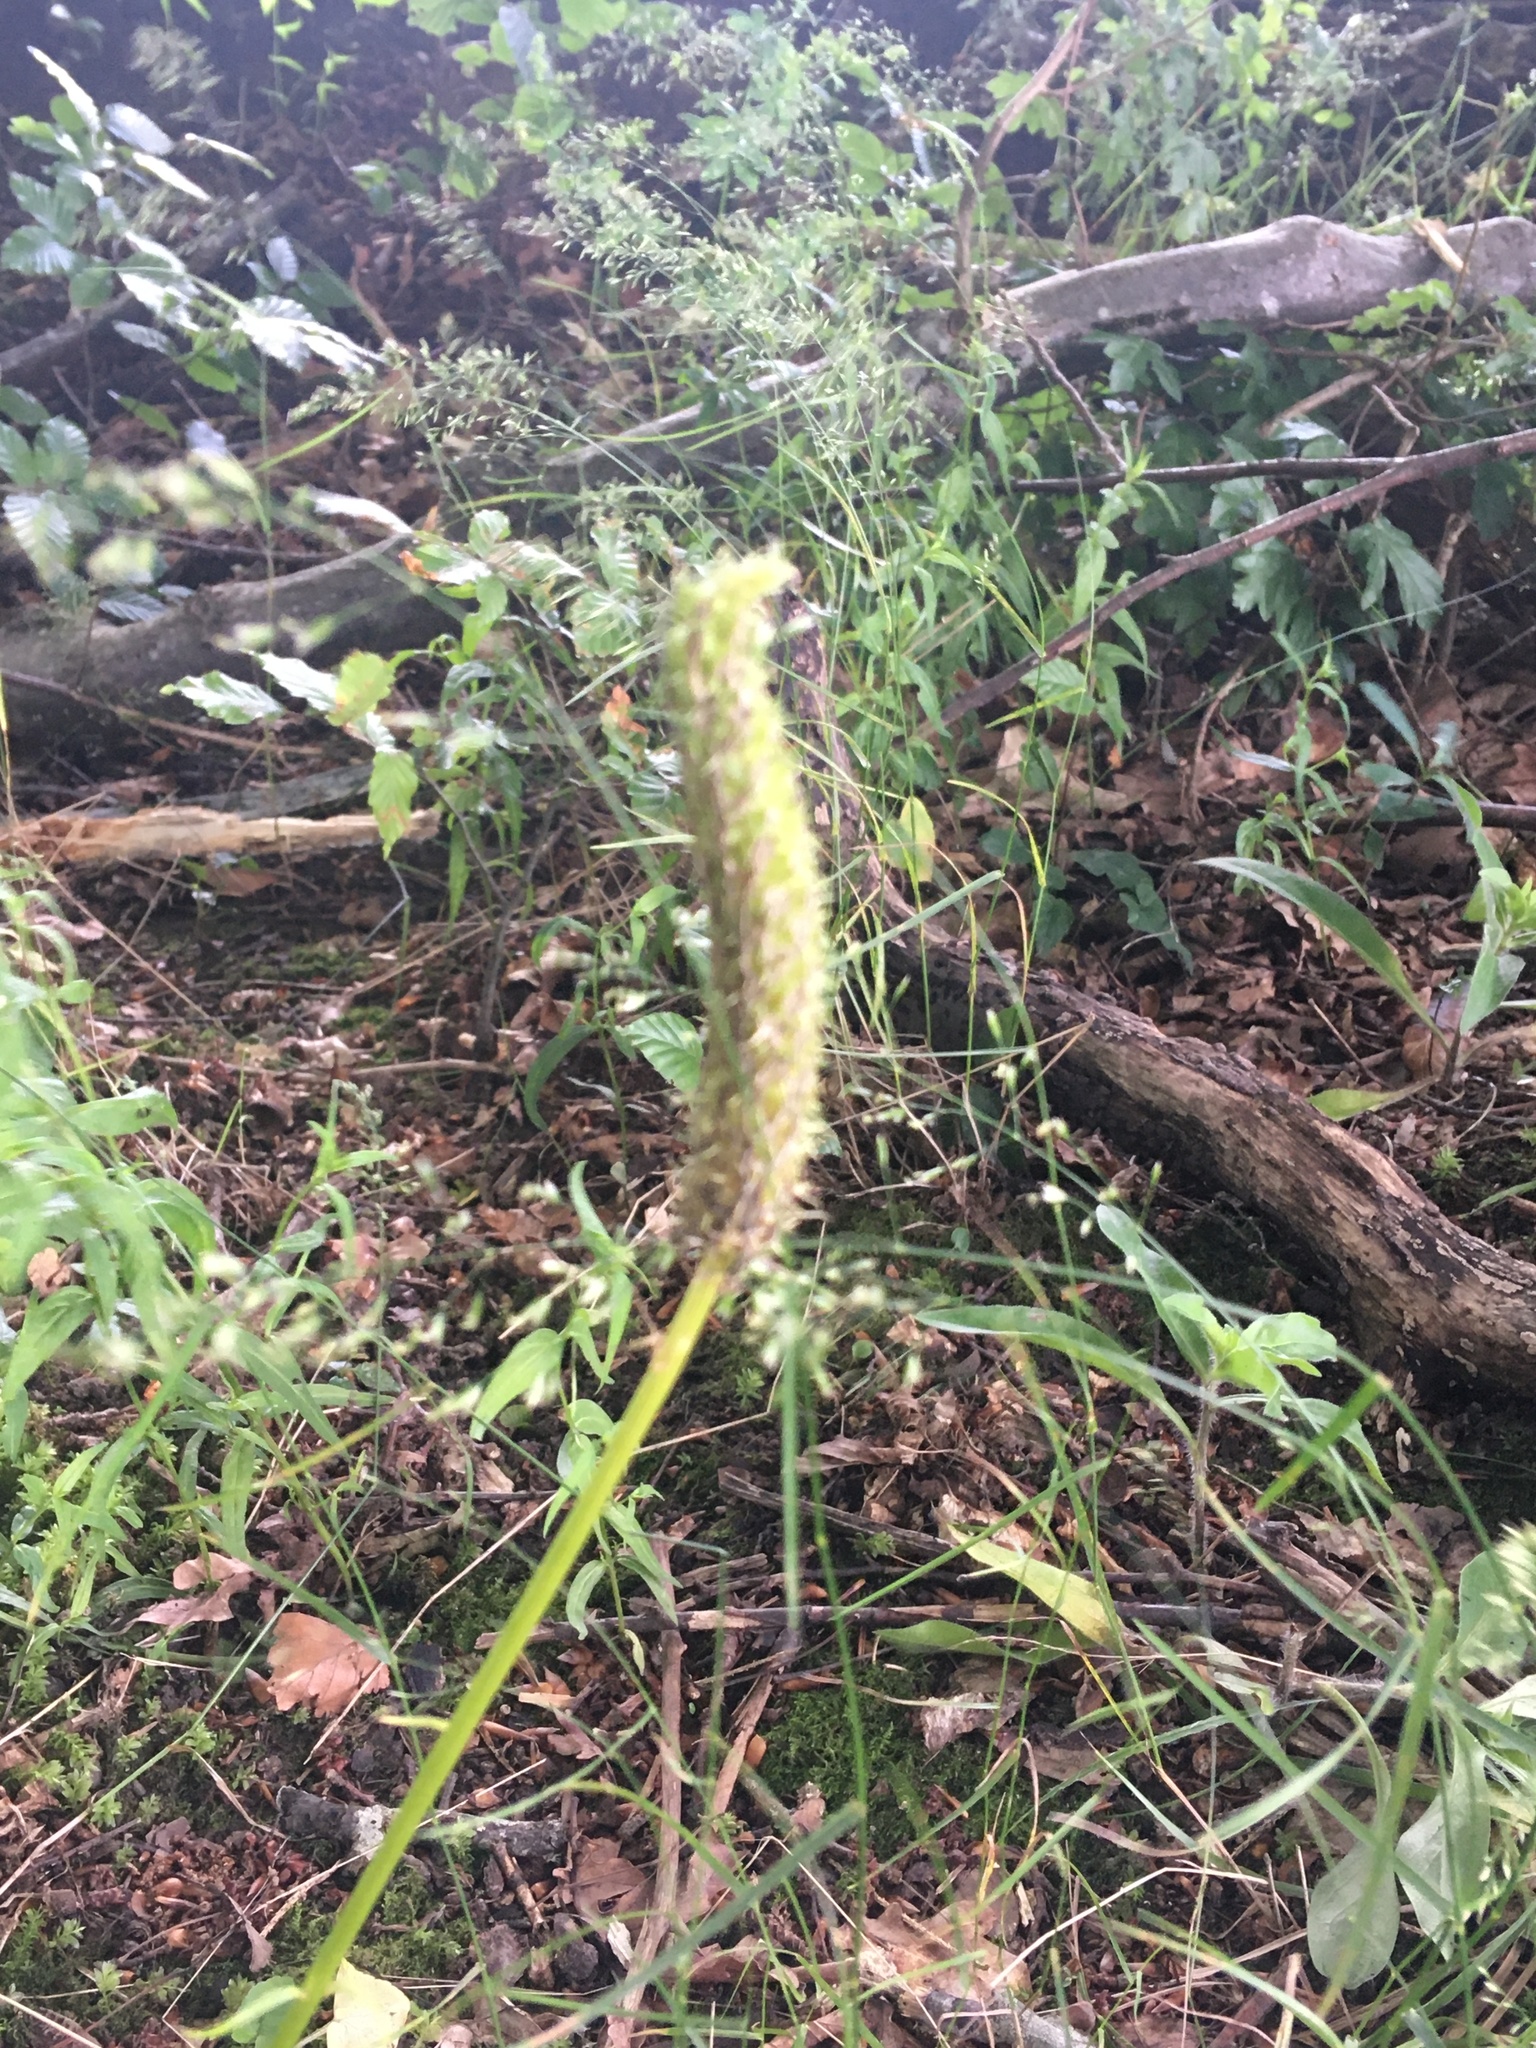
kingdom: Plantae
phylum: Tracheophyta
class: Magnoliopsida
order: Asterales
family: Campanulaceae
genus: Phyteuma
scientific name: Phyteuma spicatum
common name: Spiked rampion
